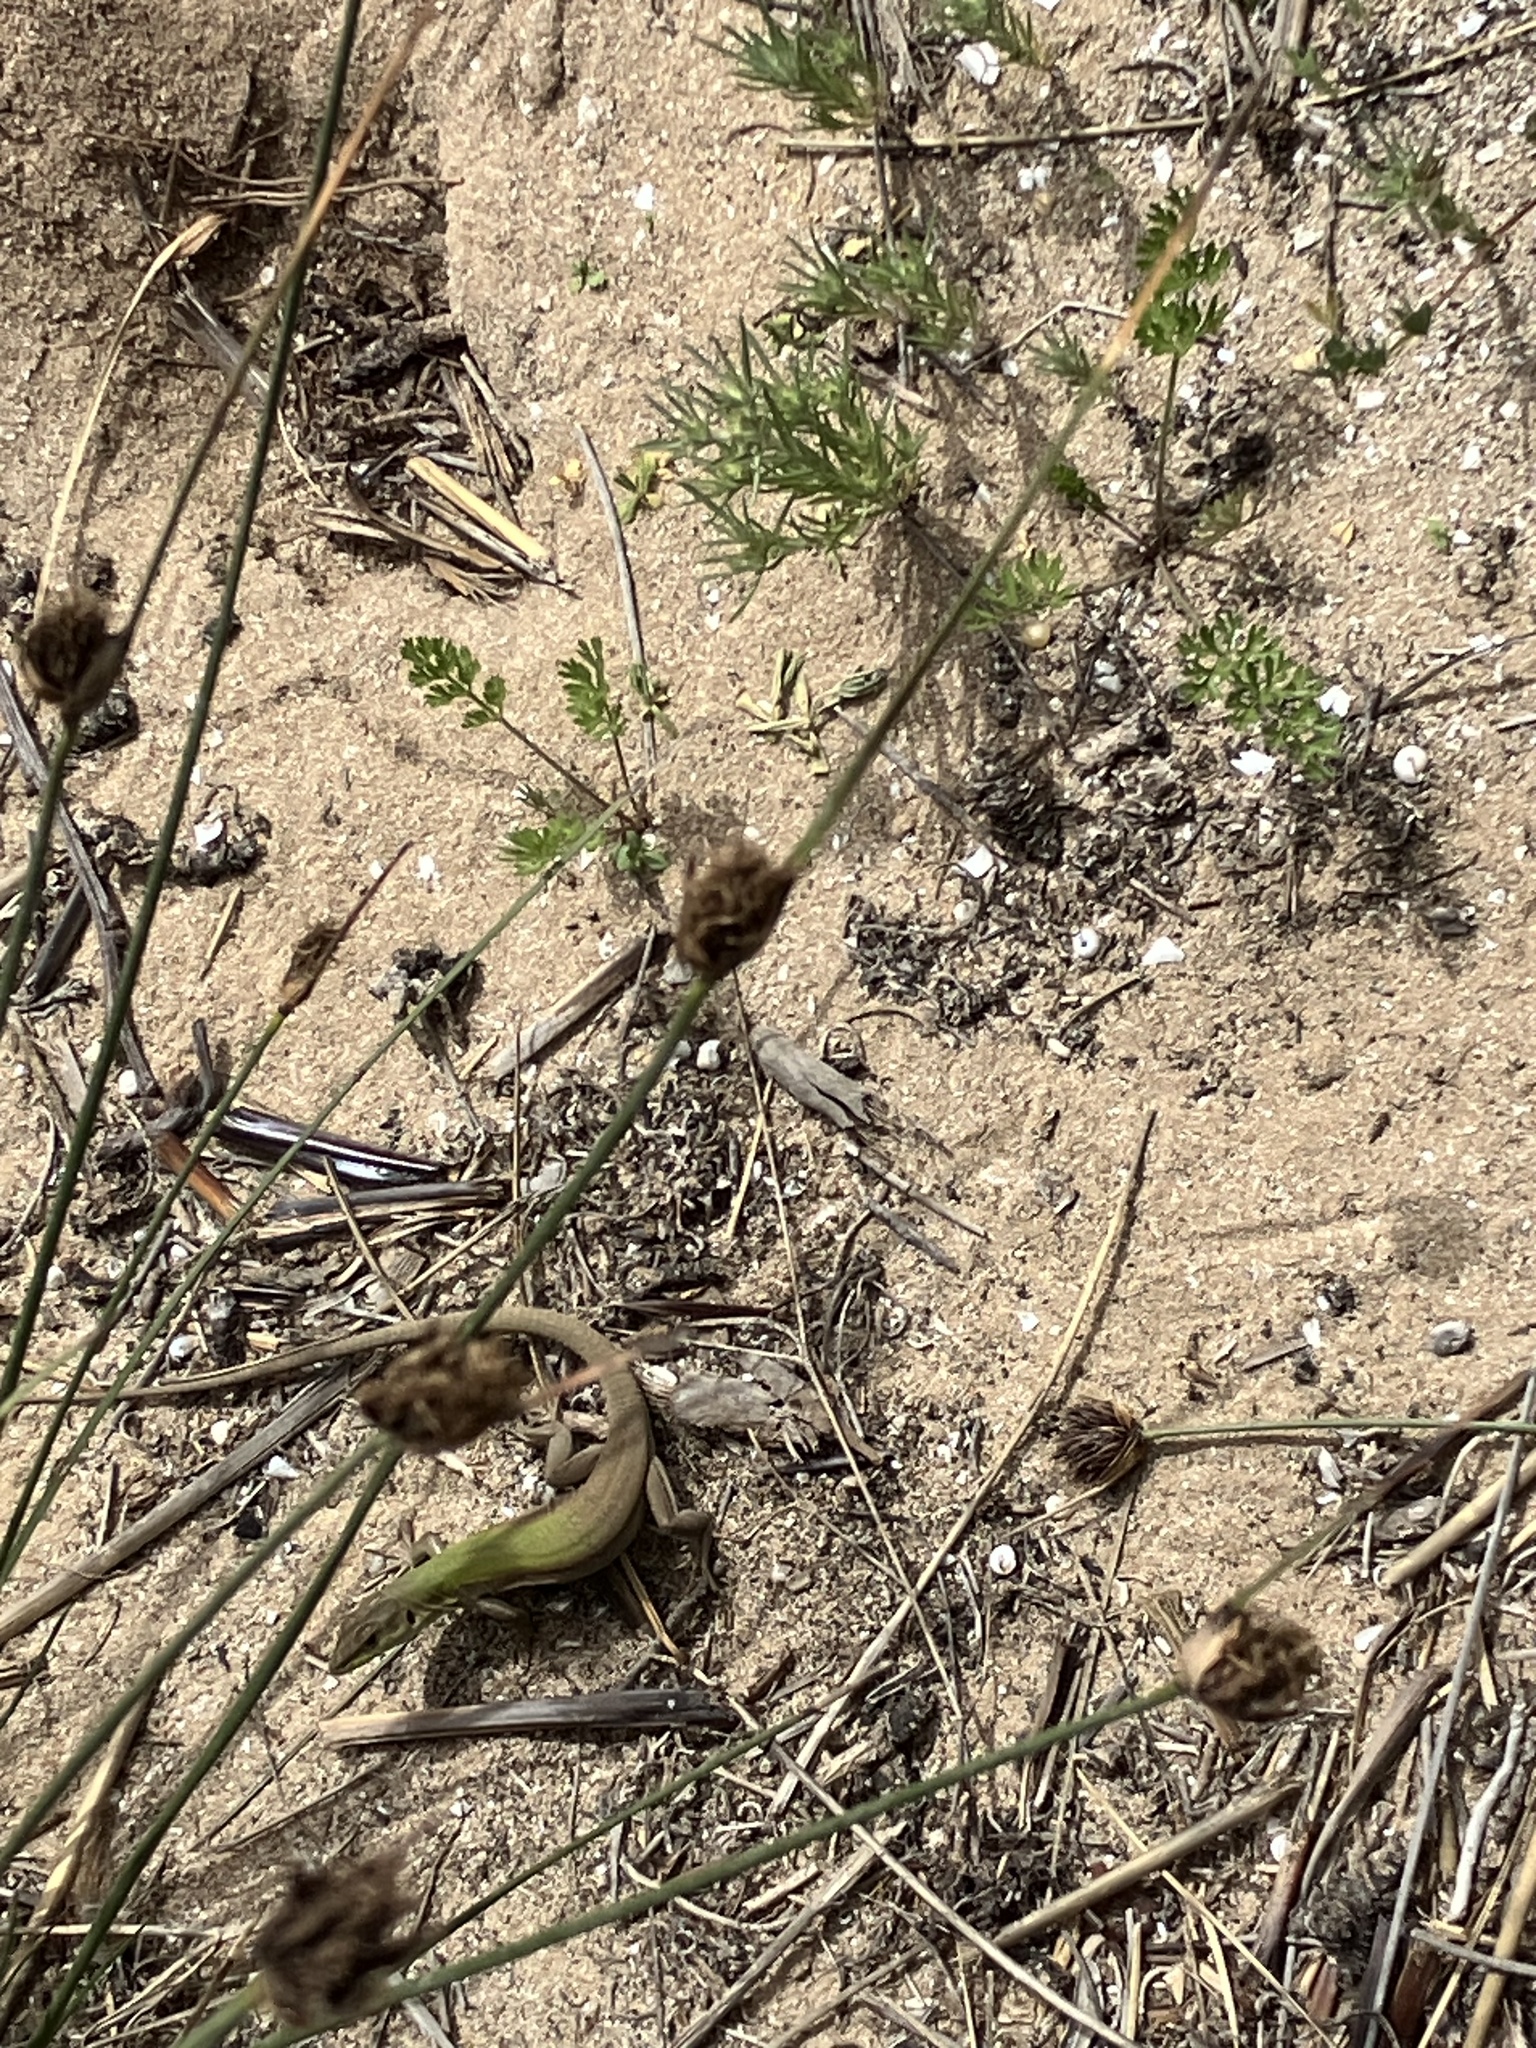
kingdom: Animalia
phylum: Chordata
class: Squamata
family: Lacertidae
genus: Podarcis
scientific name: Podarcis siculus
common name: Italian wall lizard
